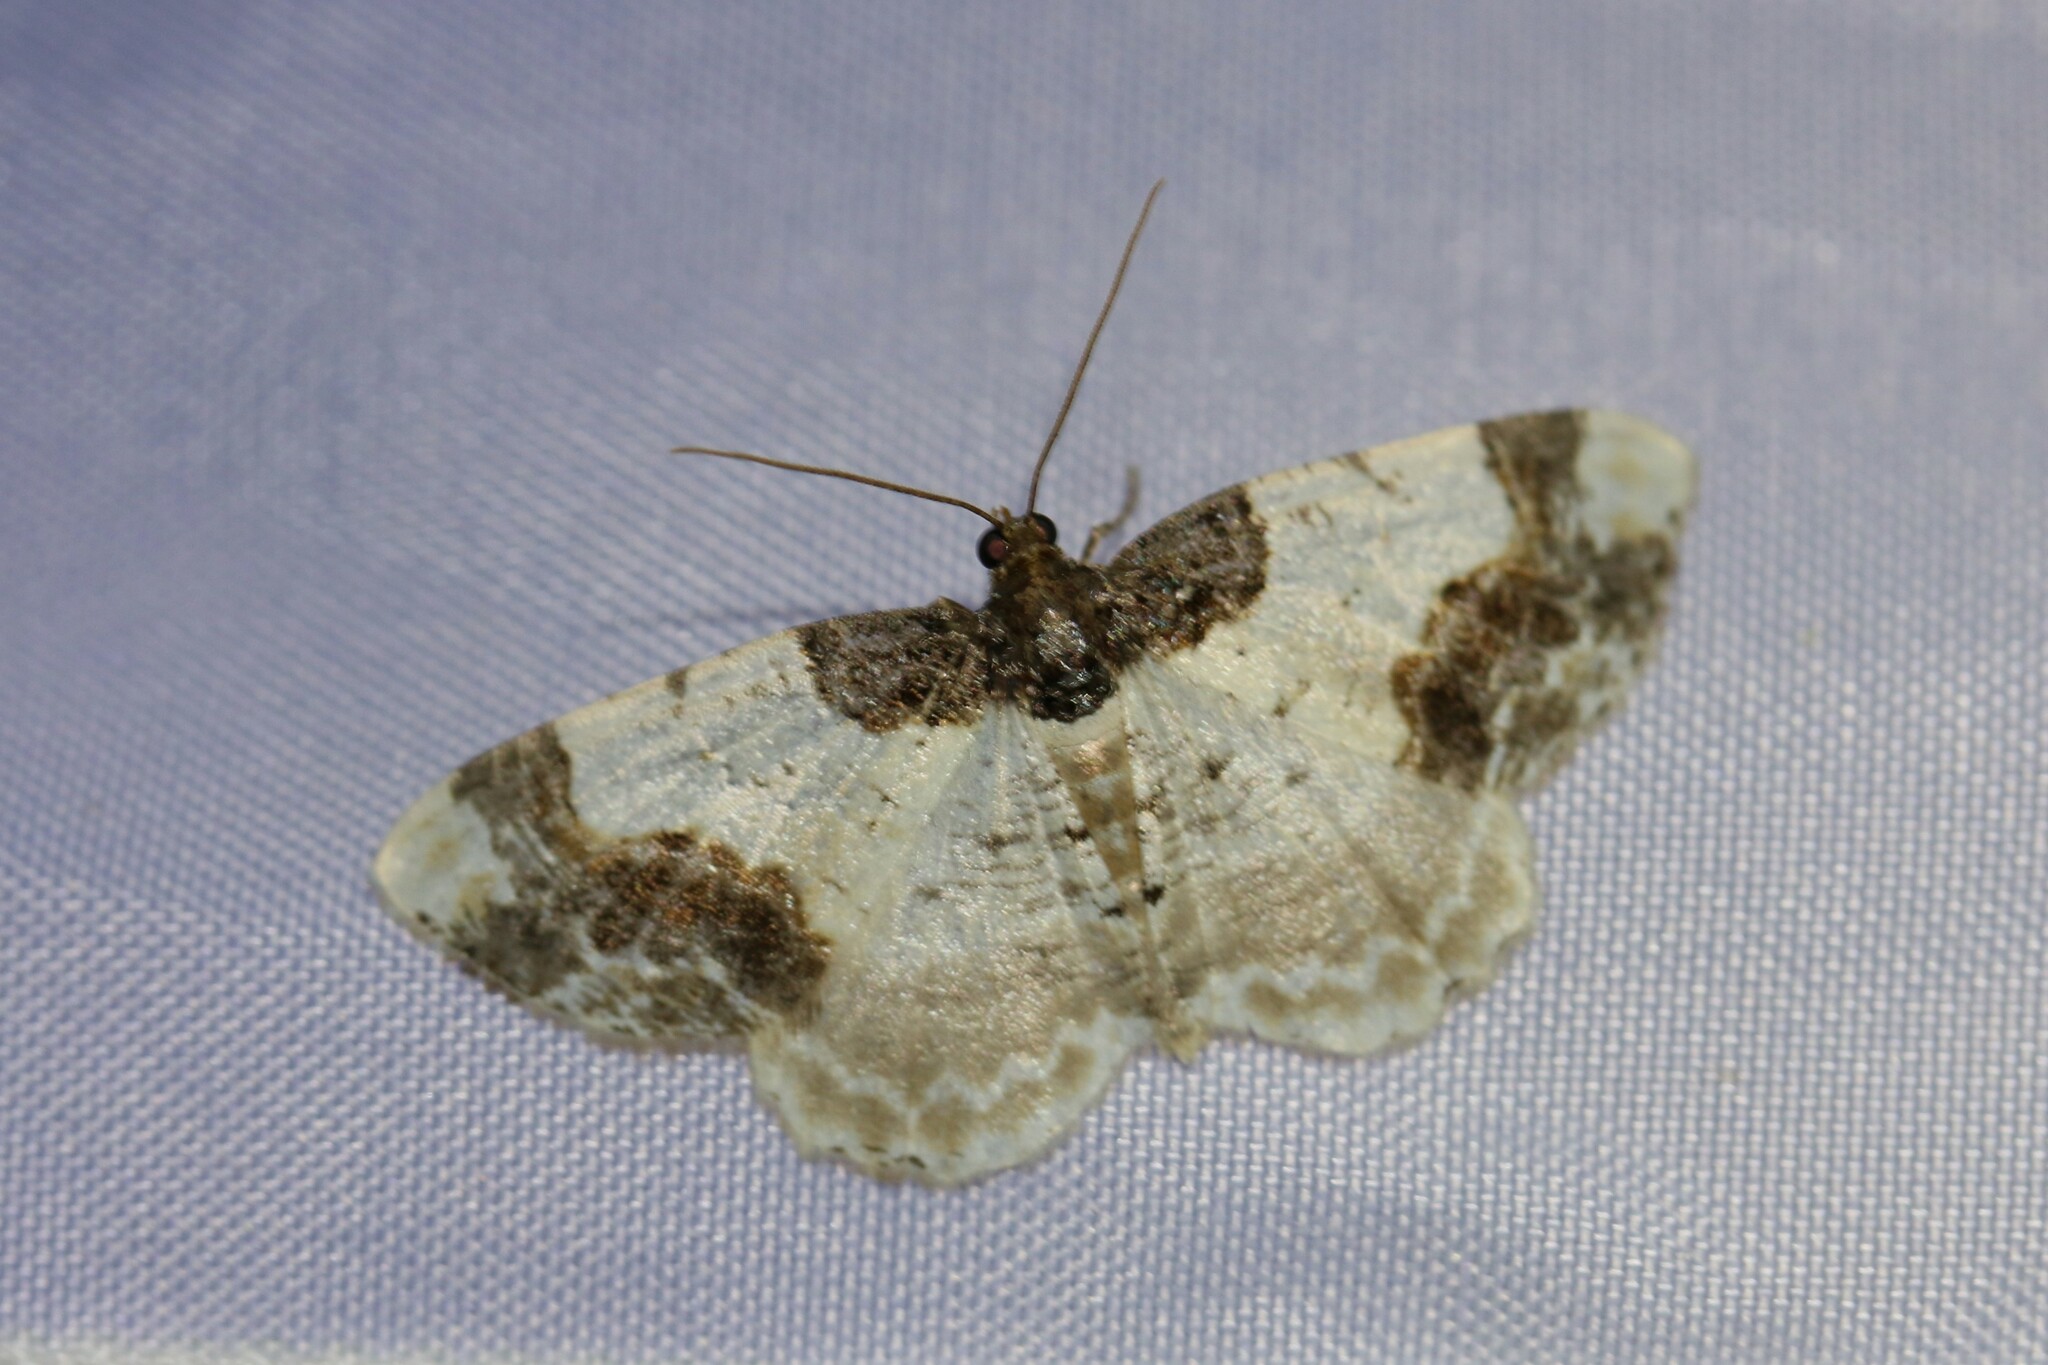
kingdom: Animalia
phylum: Arthropoda
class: Insecta
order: Lepidoptera
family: Geometridae
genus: Ligdia
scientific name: Ligdia adustata
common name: Scorched carpet
